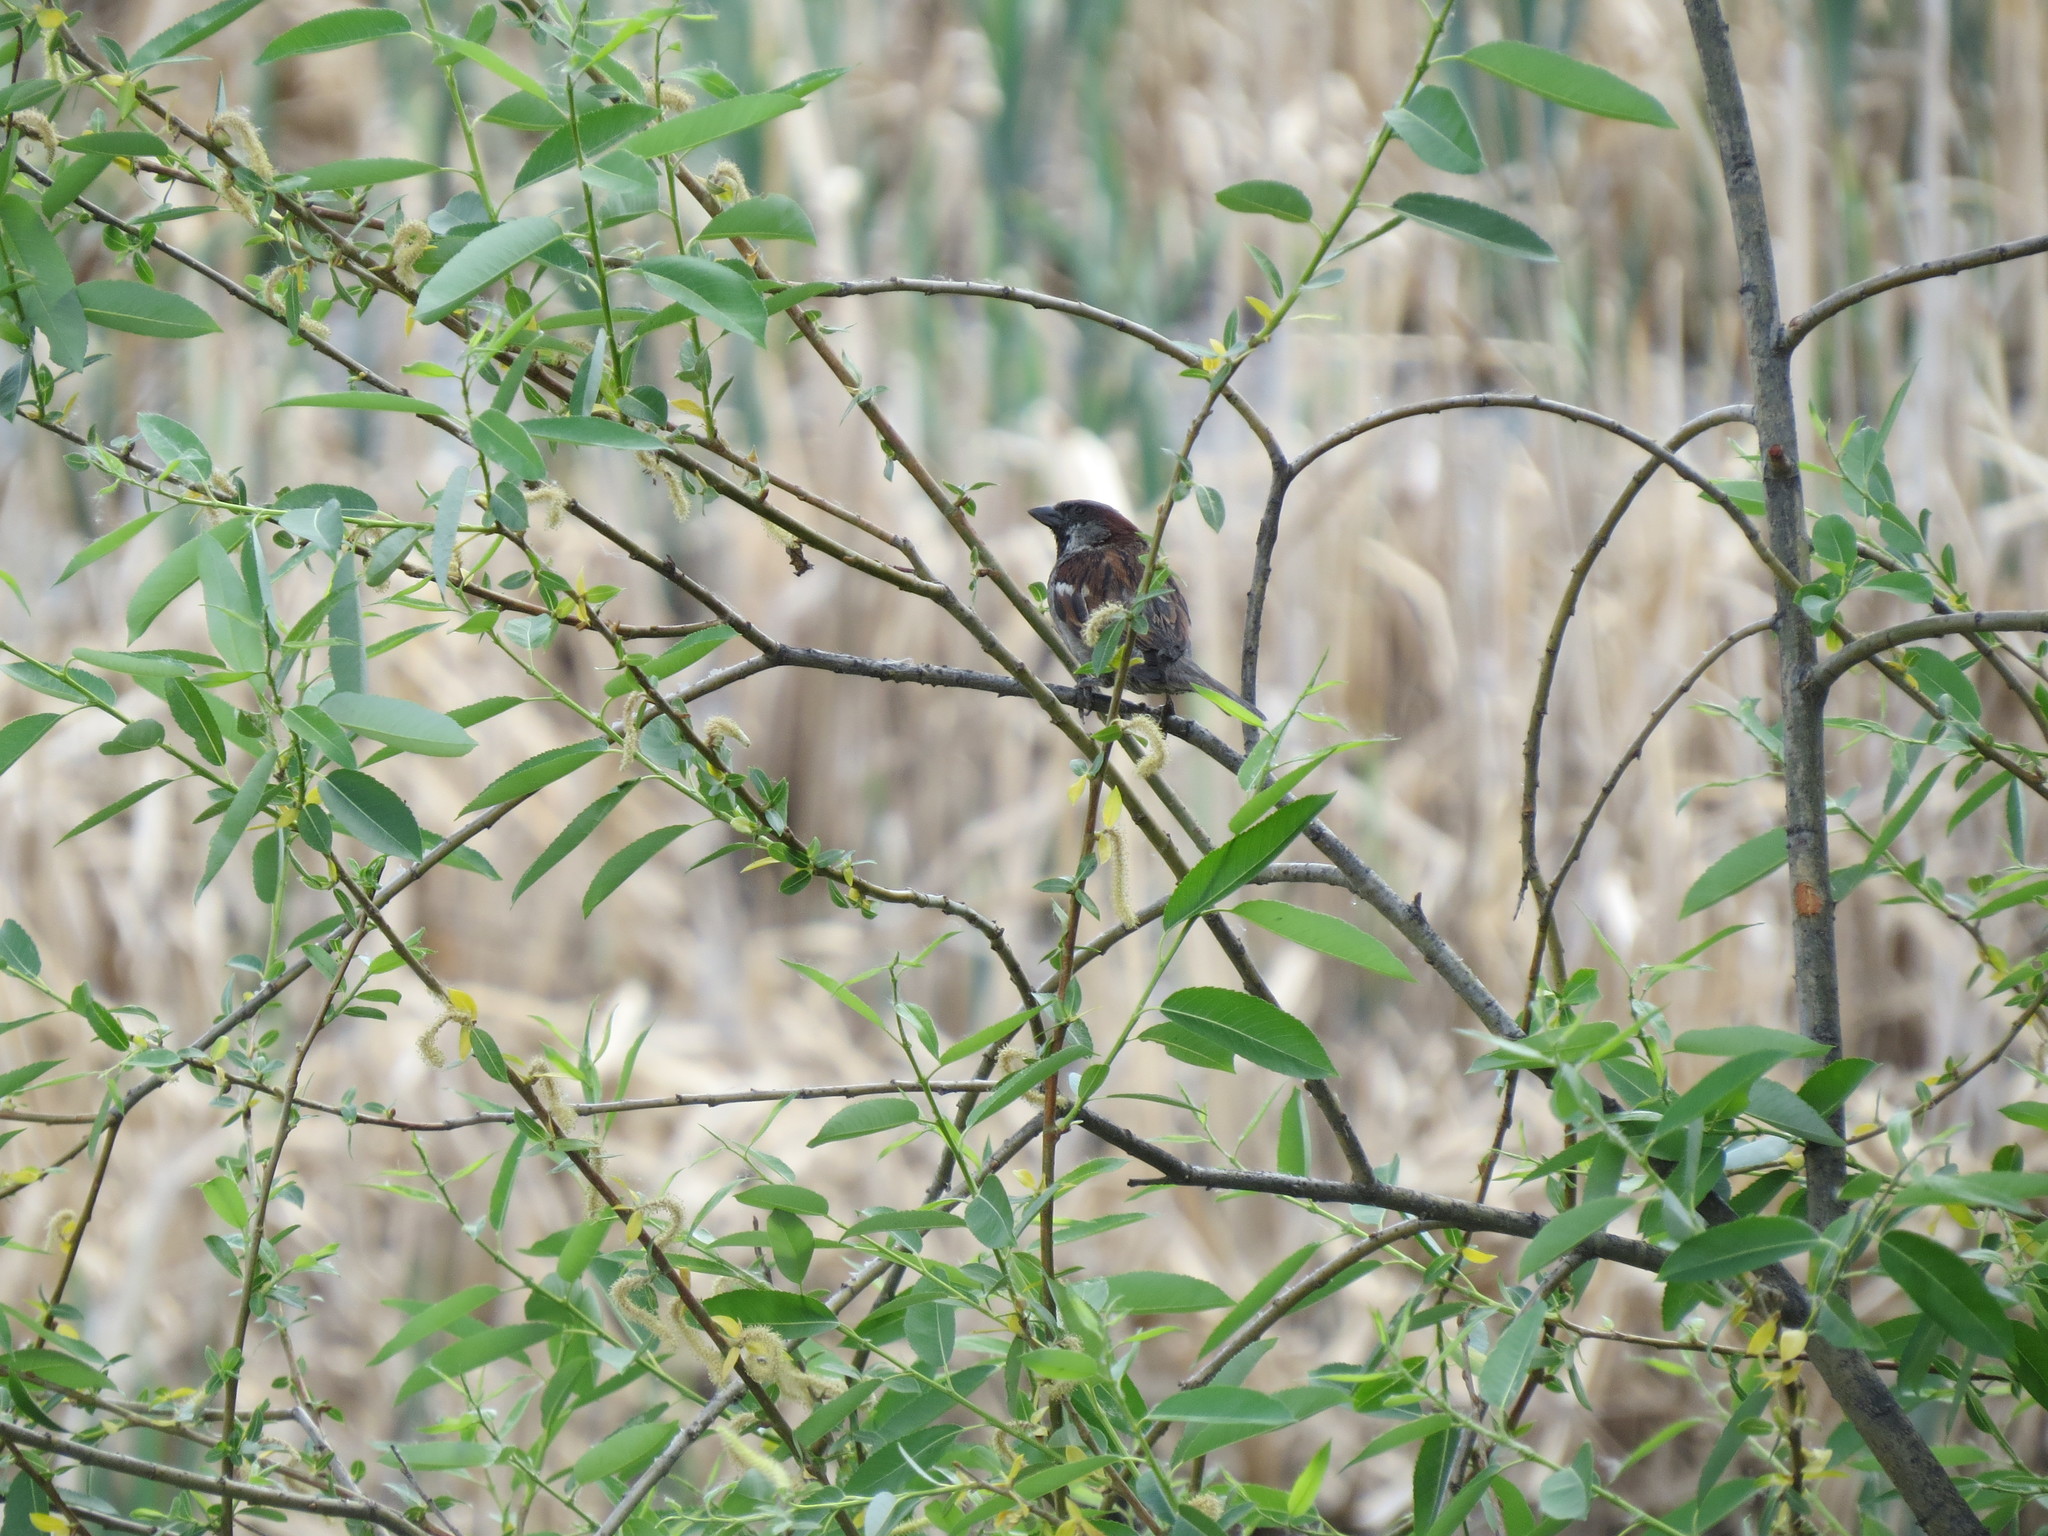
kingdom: Animalia
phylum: Chordata
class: Aves
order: Passeriformes
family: Passeridae
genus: Passer
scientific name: Passer domesticus
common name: House sparrow
